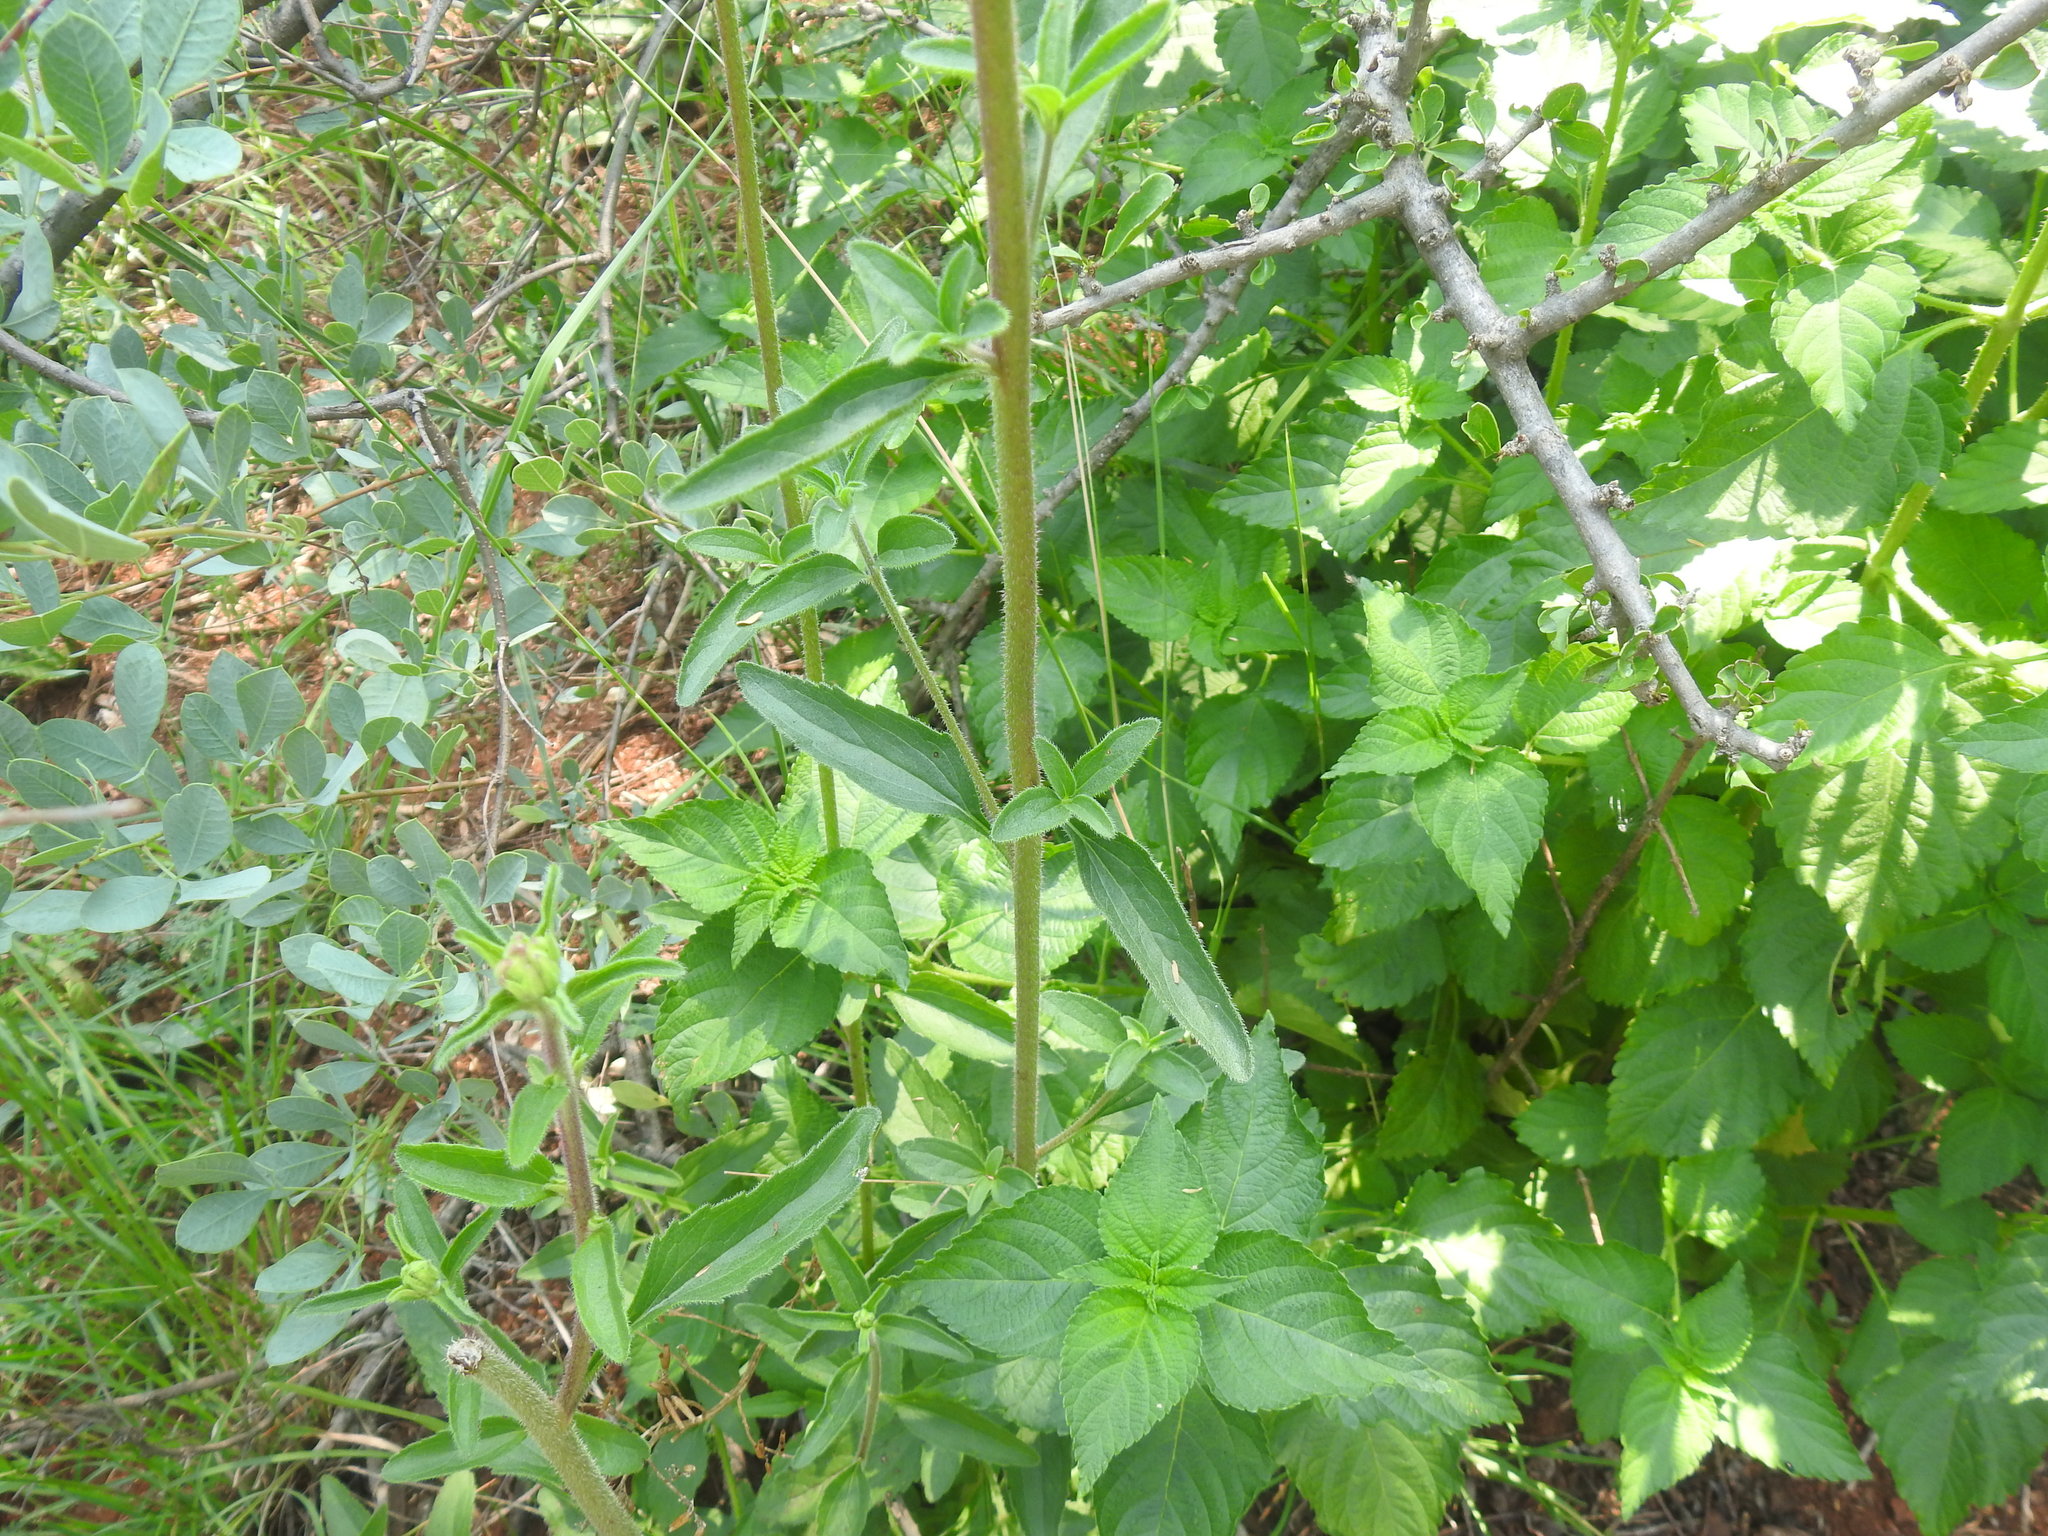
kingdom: Plantae
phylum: Tracheophyta
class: Magnoliopsida
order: Asterales
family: Asteraceae
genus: Campuloclinium
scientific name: Campuloclinium macrocephalum
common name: Pompomweed
